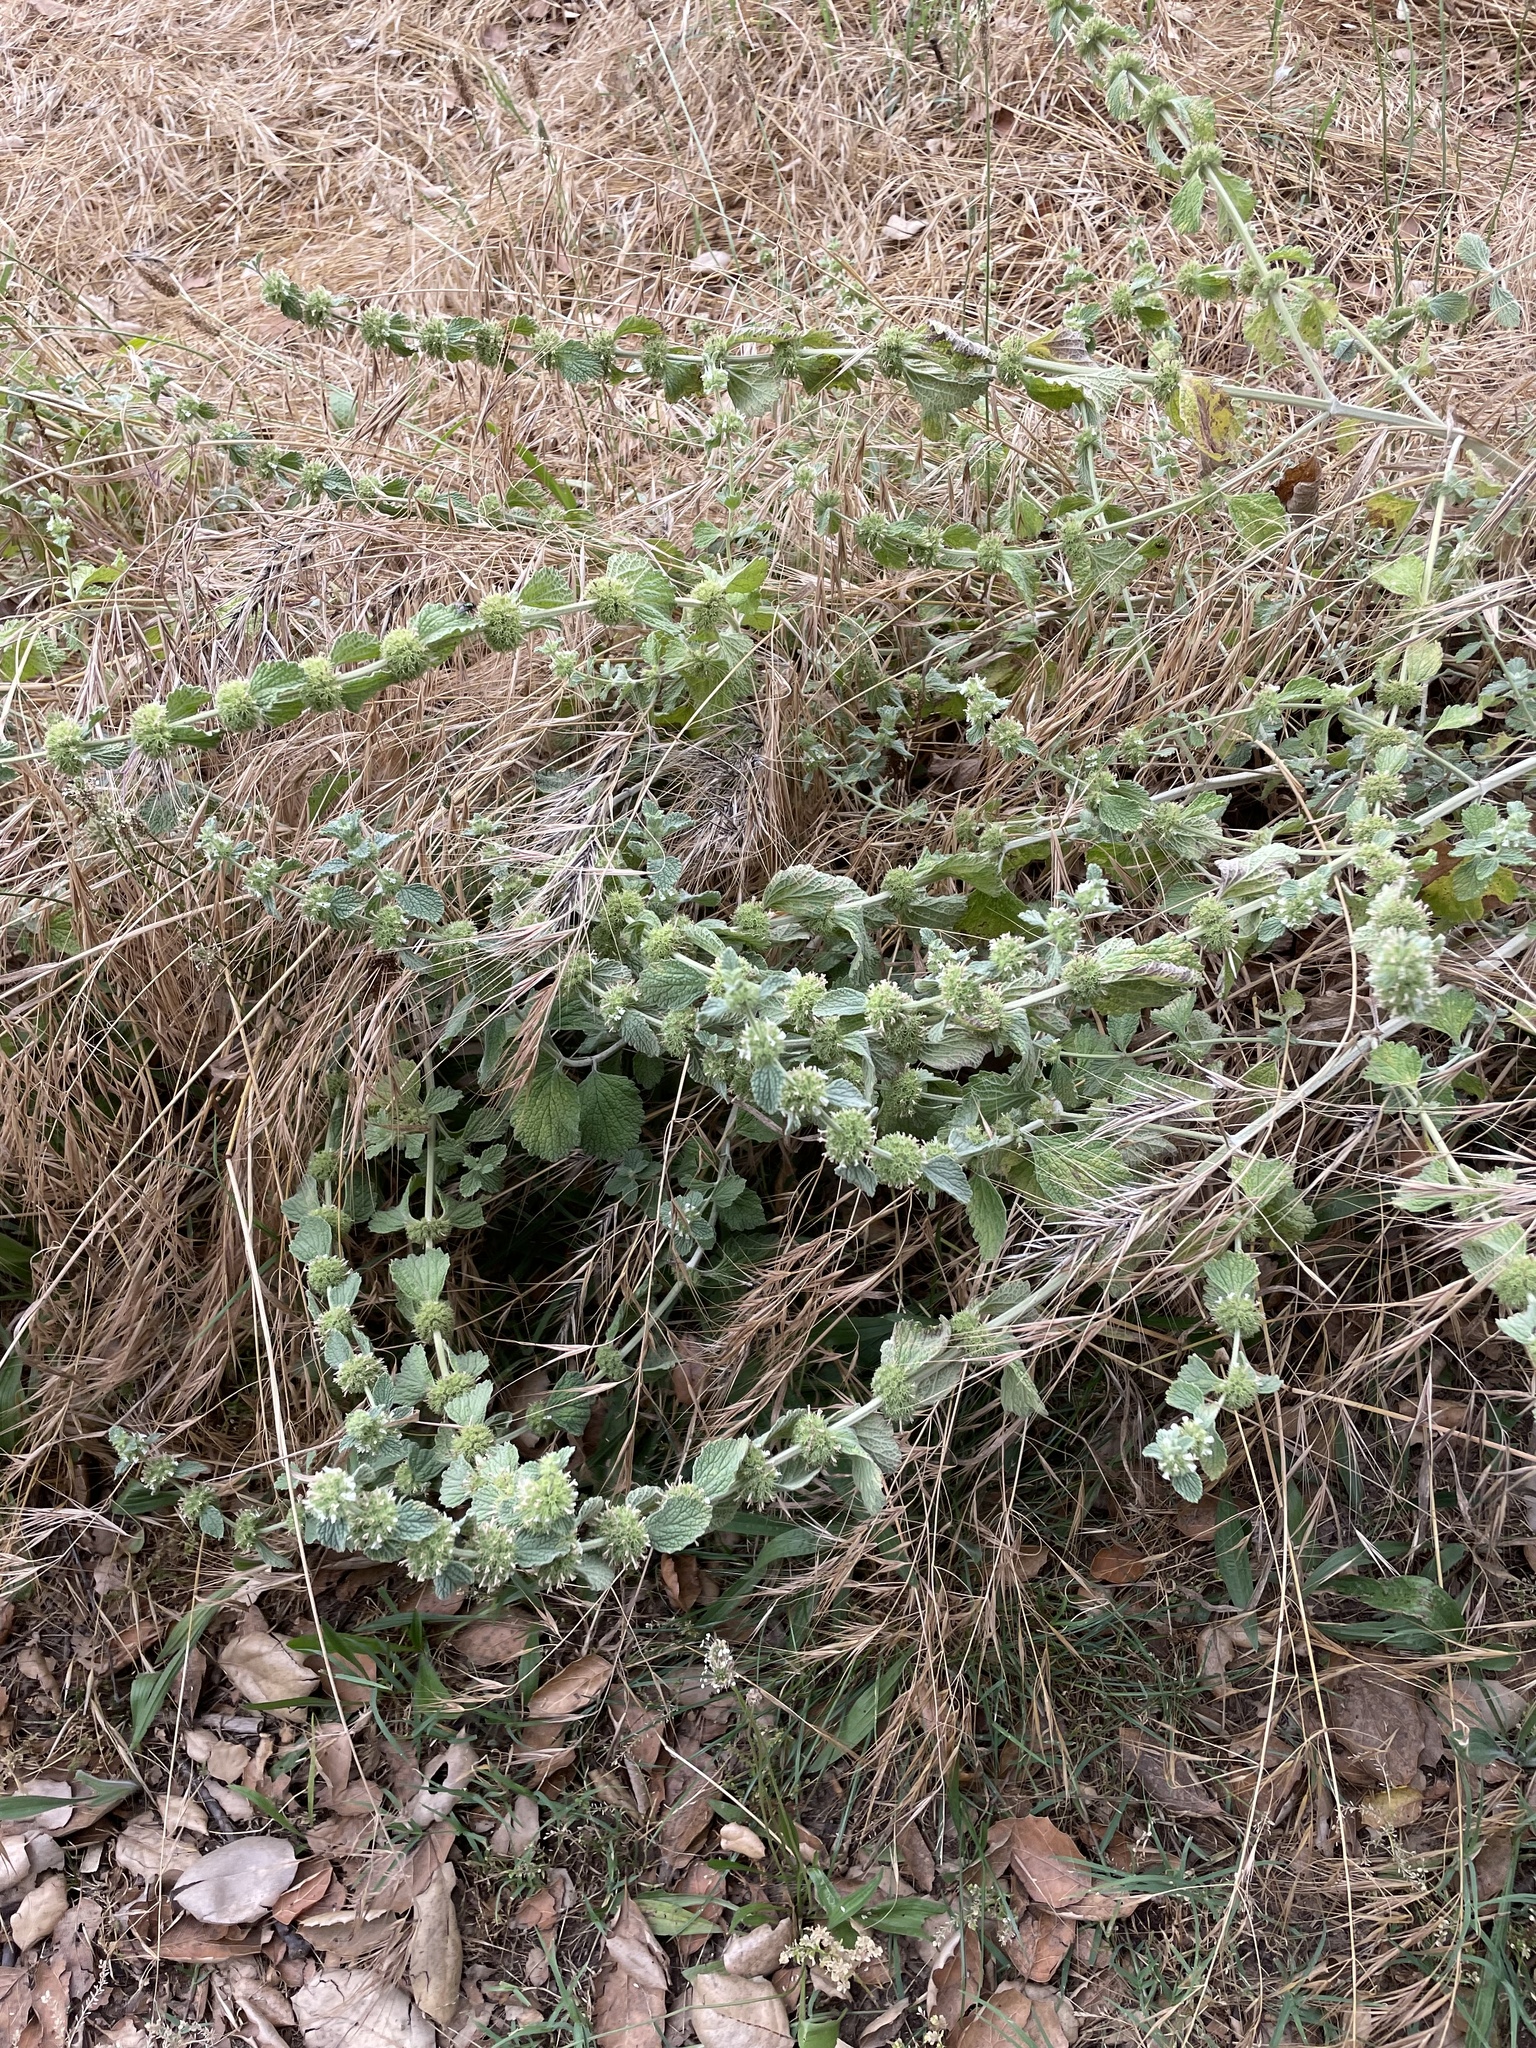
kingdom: Plantae
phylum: Tracheophyta
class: Magnoliopsida
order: Lamiales
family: Lamiaceae
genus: Marrubium
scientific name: Marrubium vulgare
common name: Horehound
